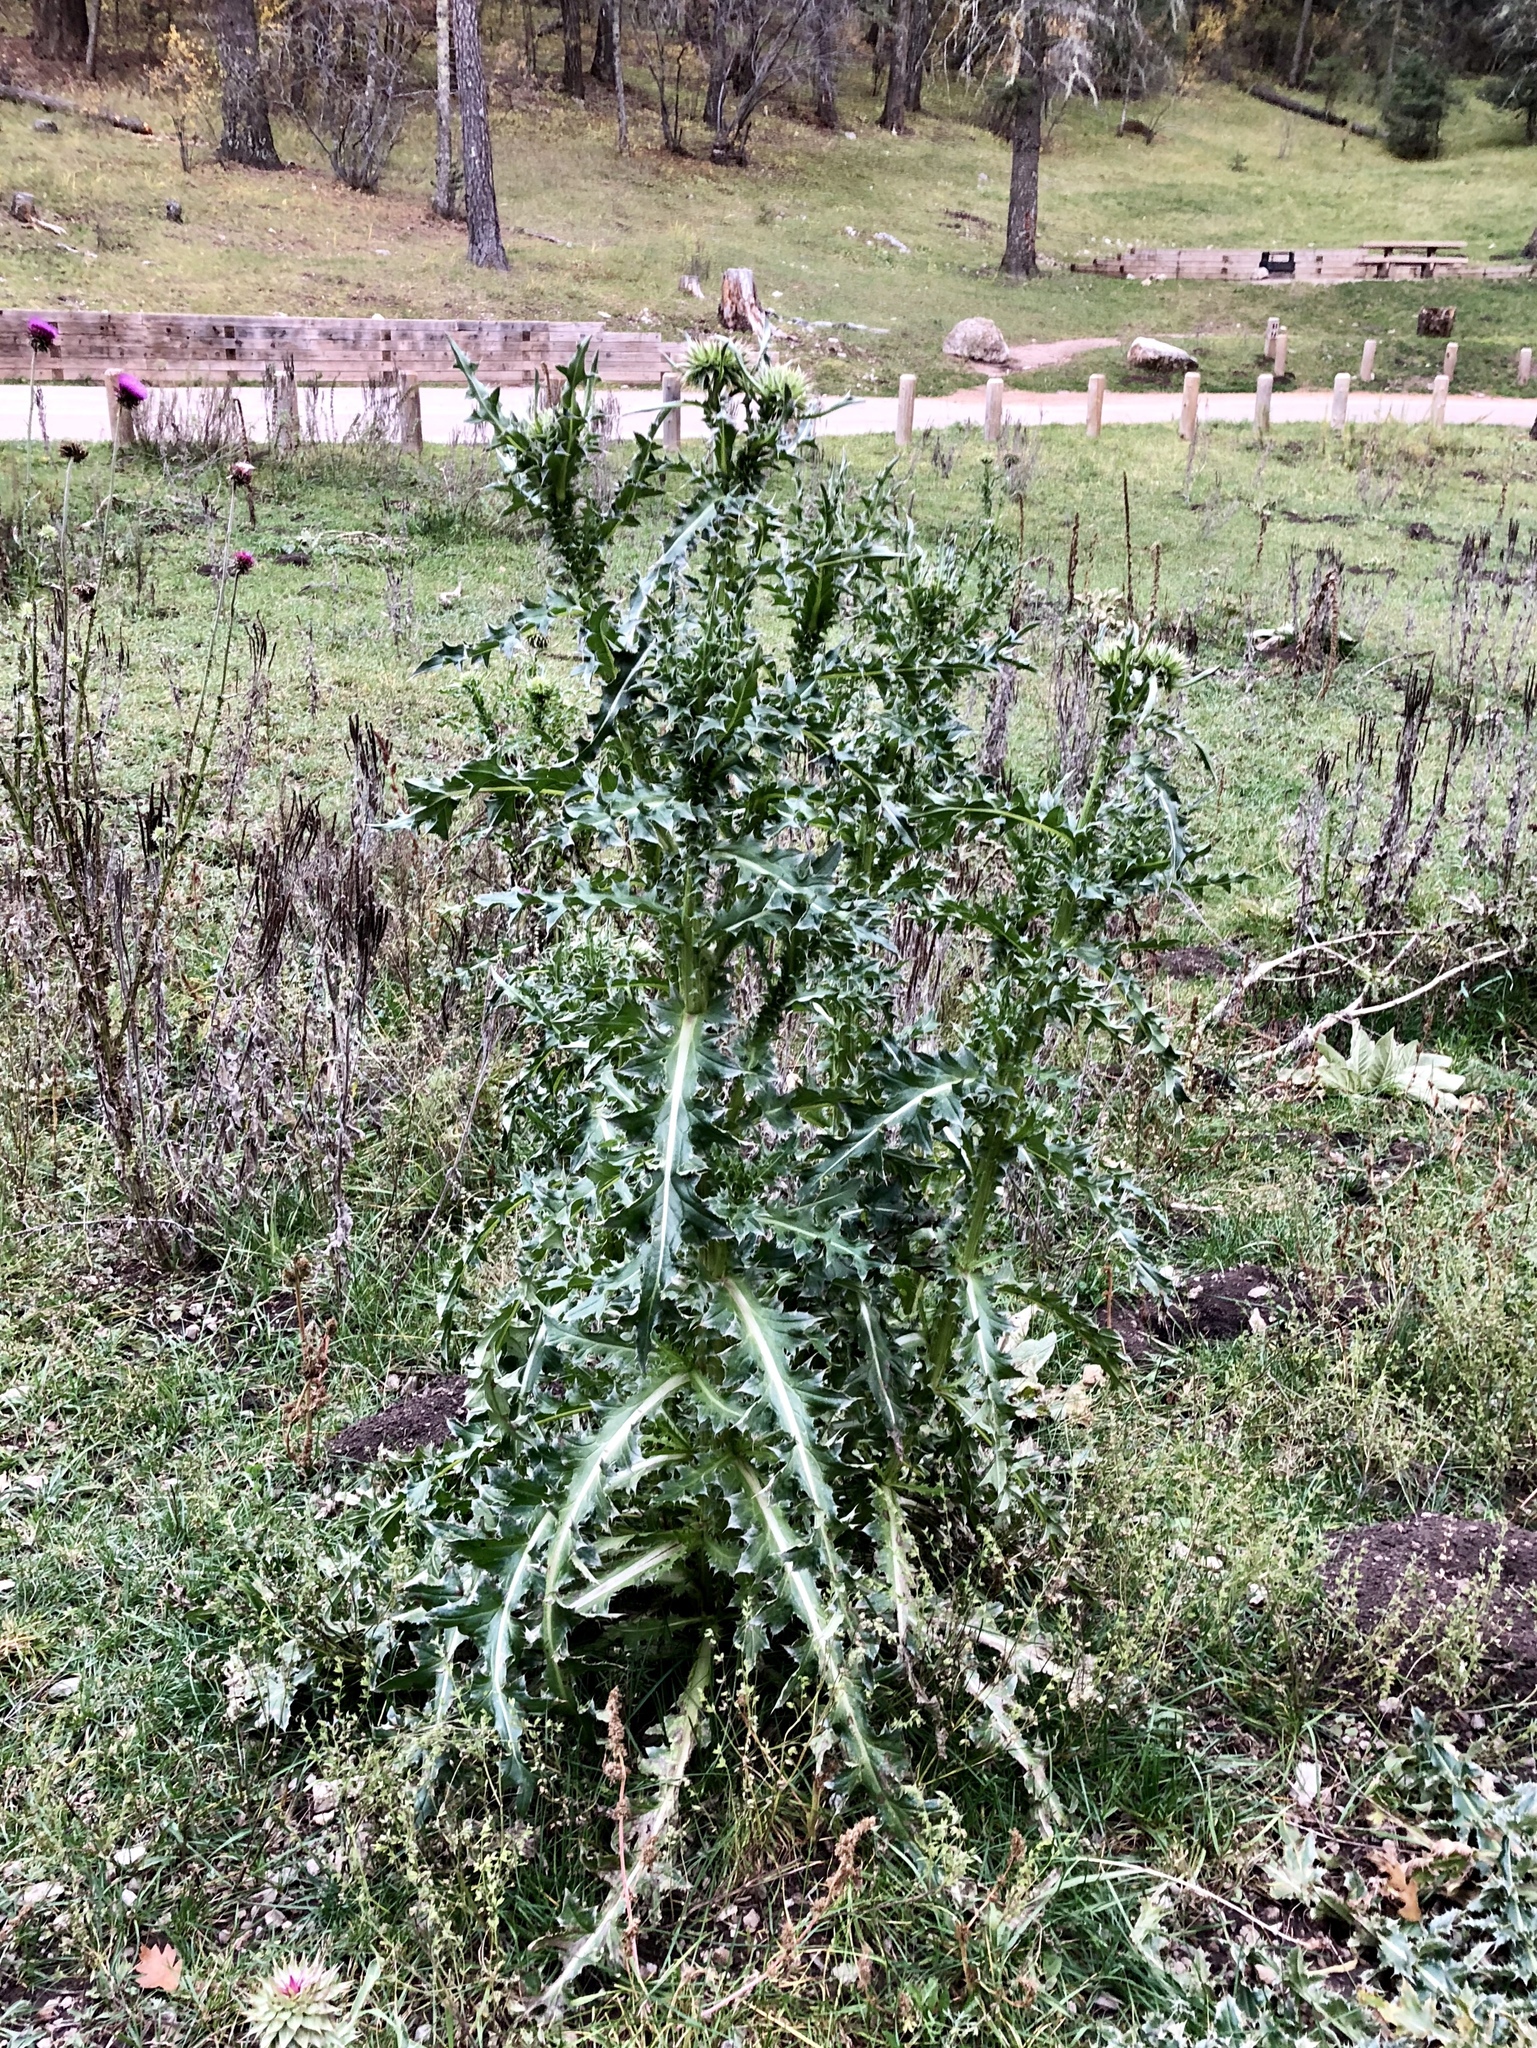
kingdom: Plantae
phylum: Tracheophyta
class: Magnoliopsida
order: Asterales
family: Asteraceae
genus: Carduus
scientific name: Carduus nutans
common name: Musk thistle
